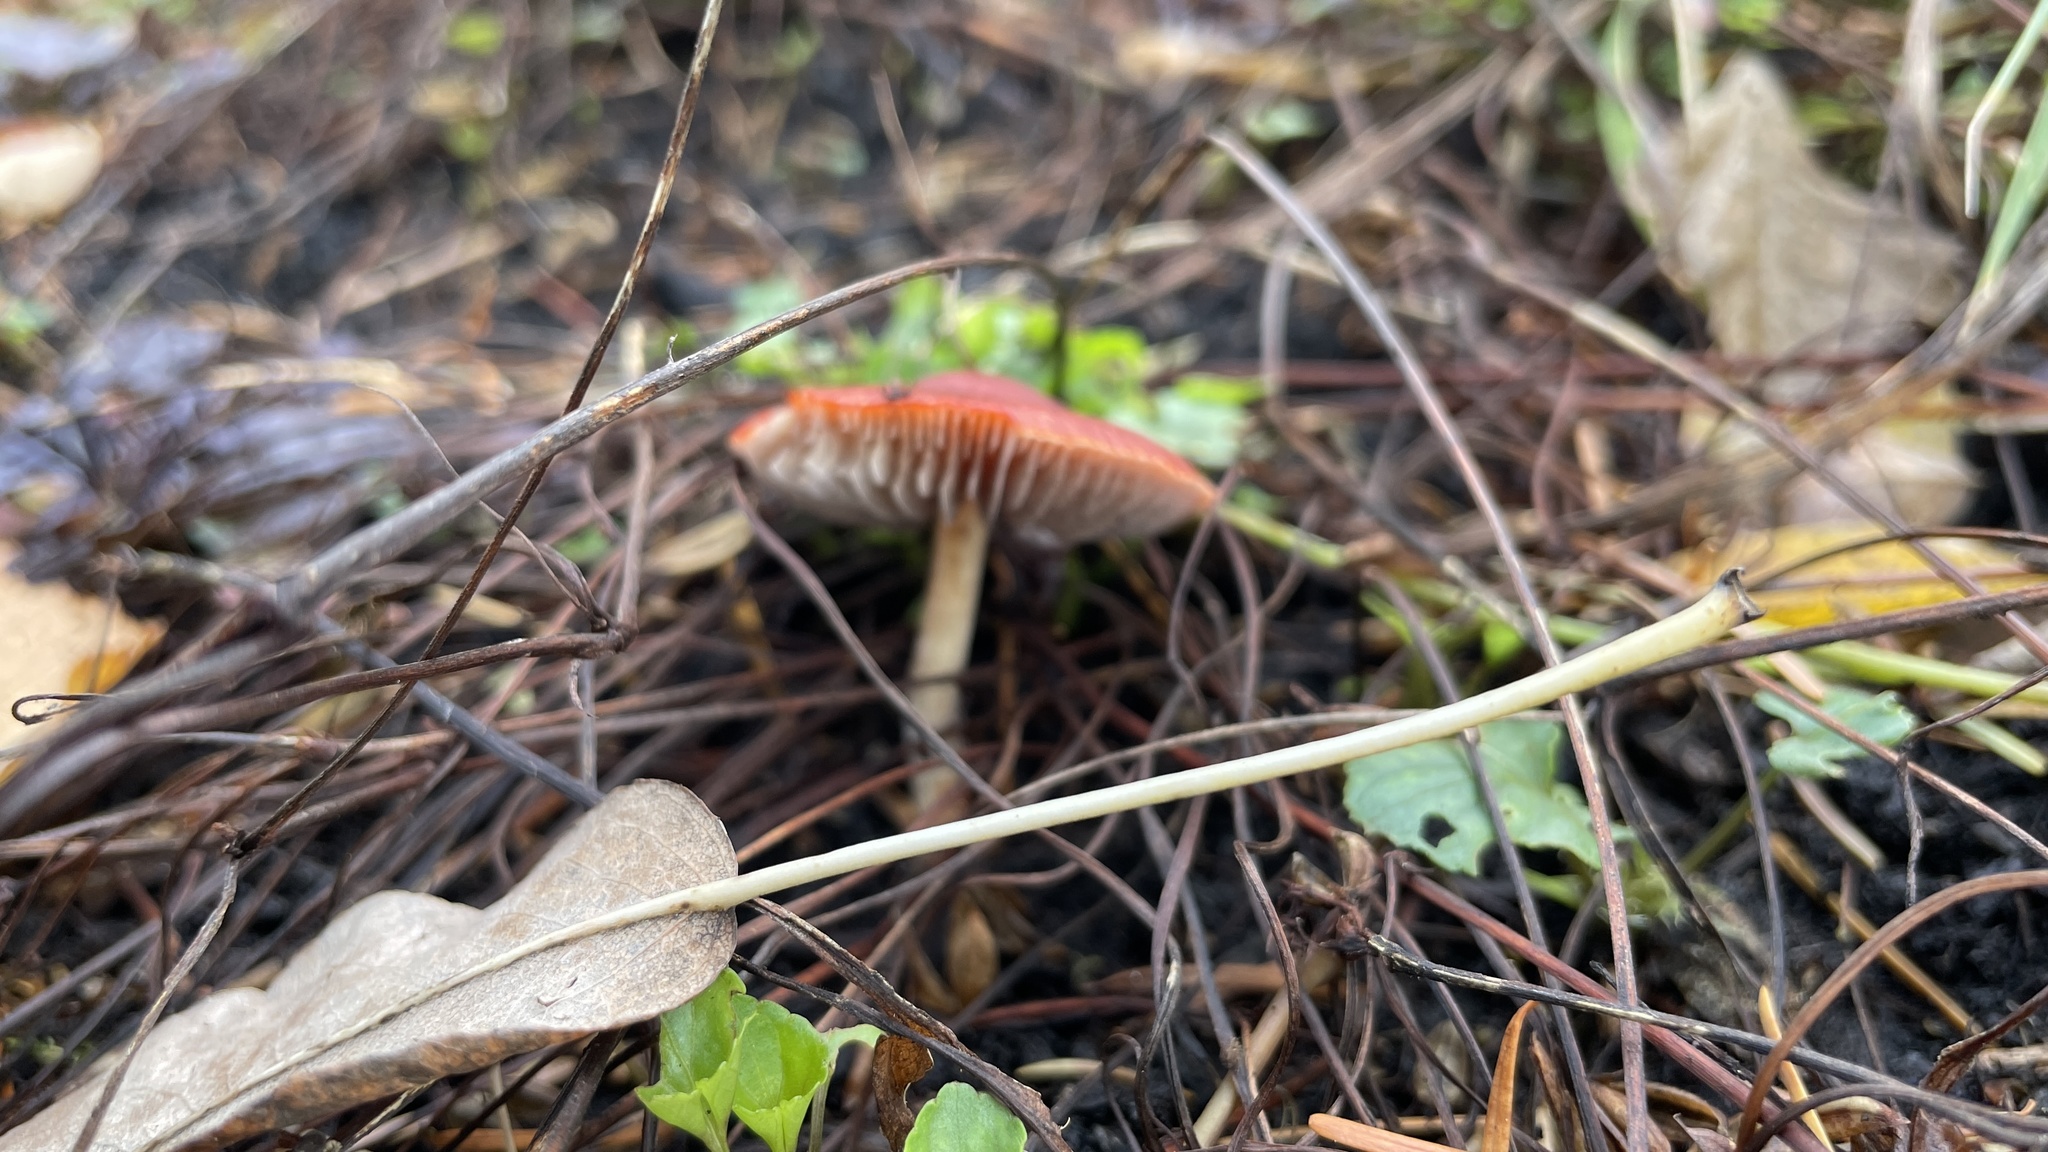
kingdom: Fungi
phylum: Basidiomycota
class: Agaricomycetes
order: Agaricales
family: Strophariaceae
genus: Leratiomyces
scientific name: Leratiomyces ceres
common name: Redlead roundhead
